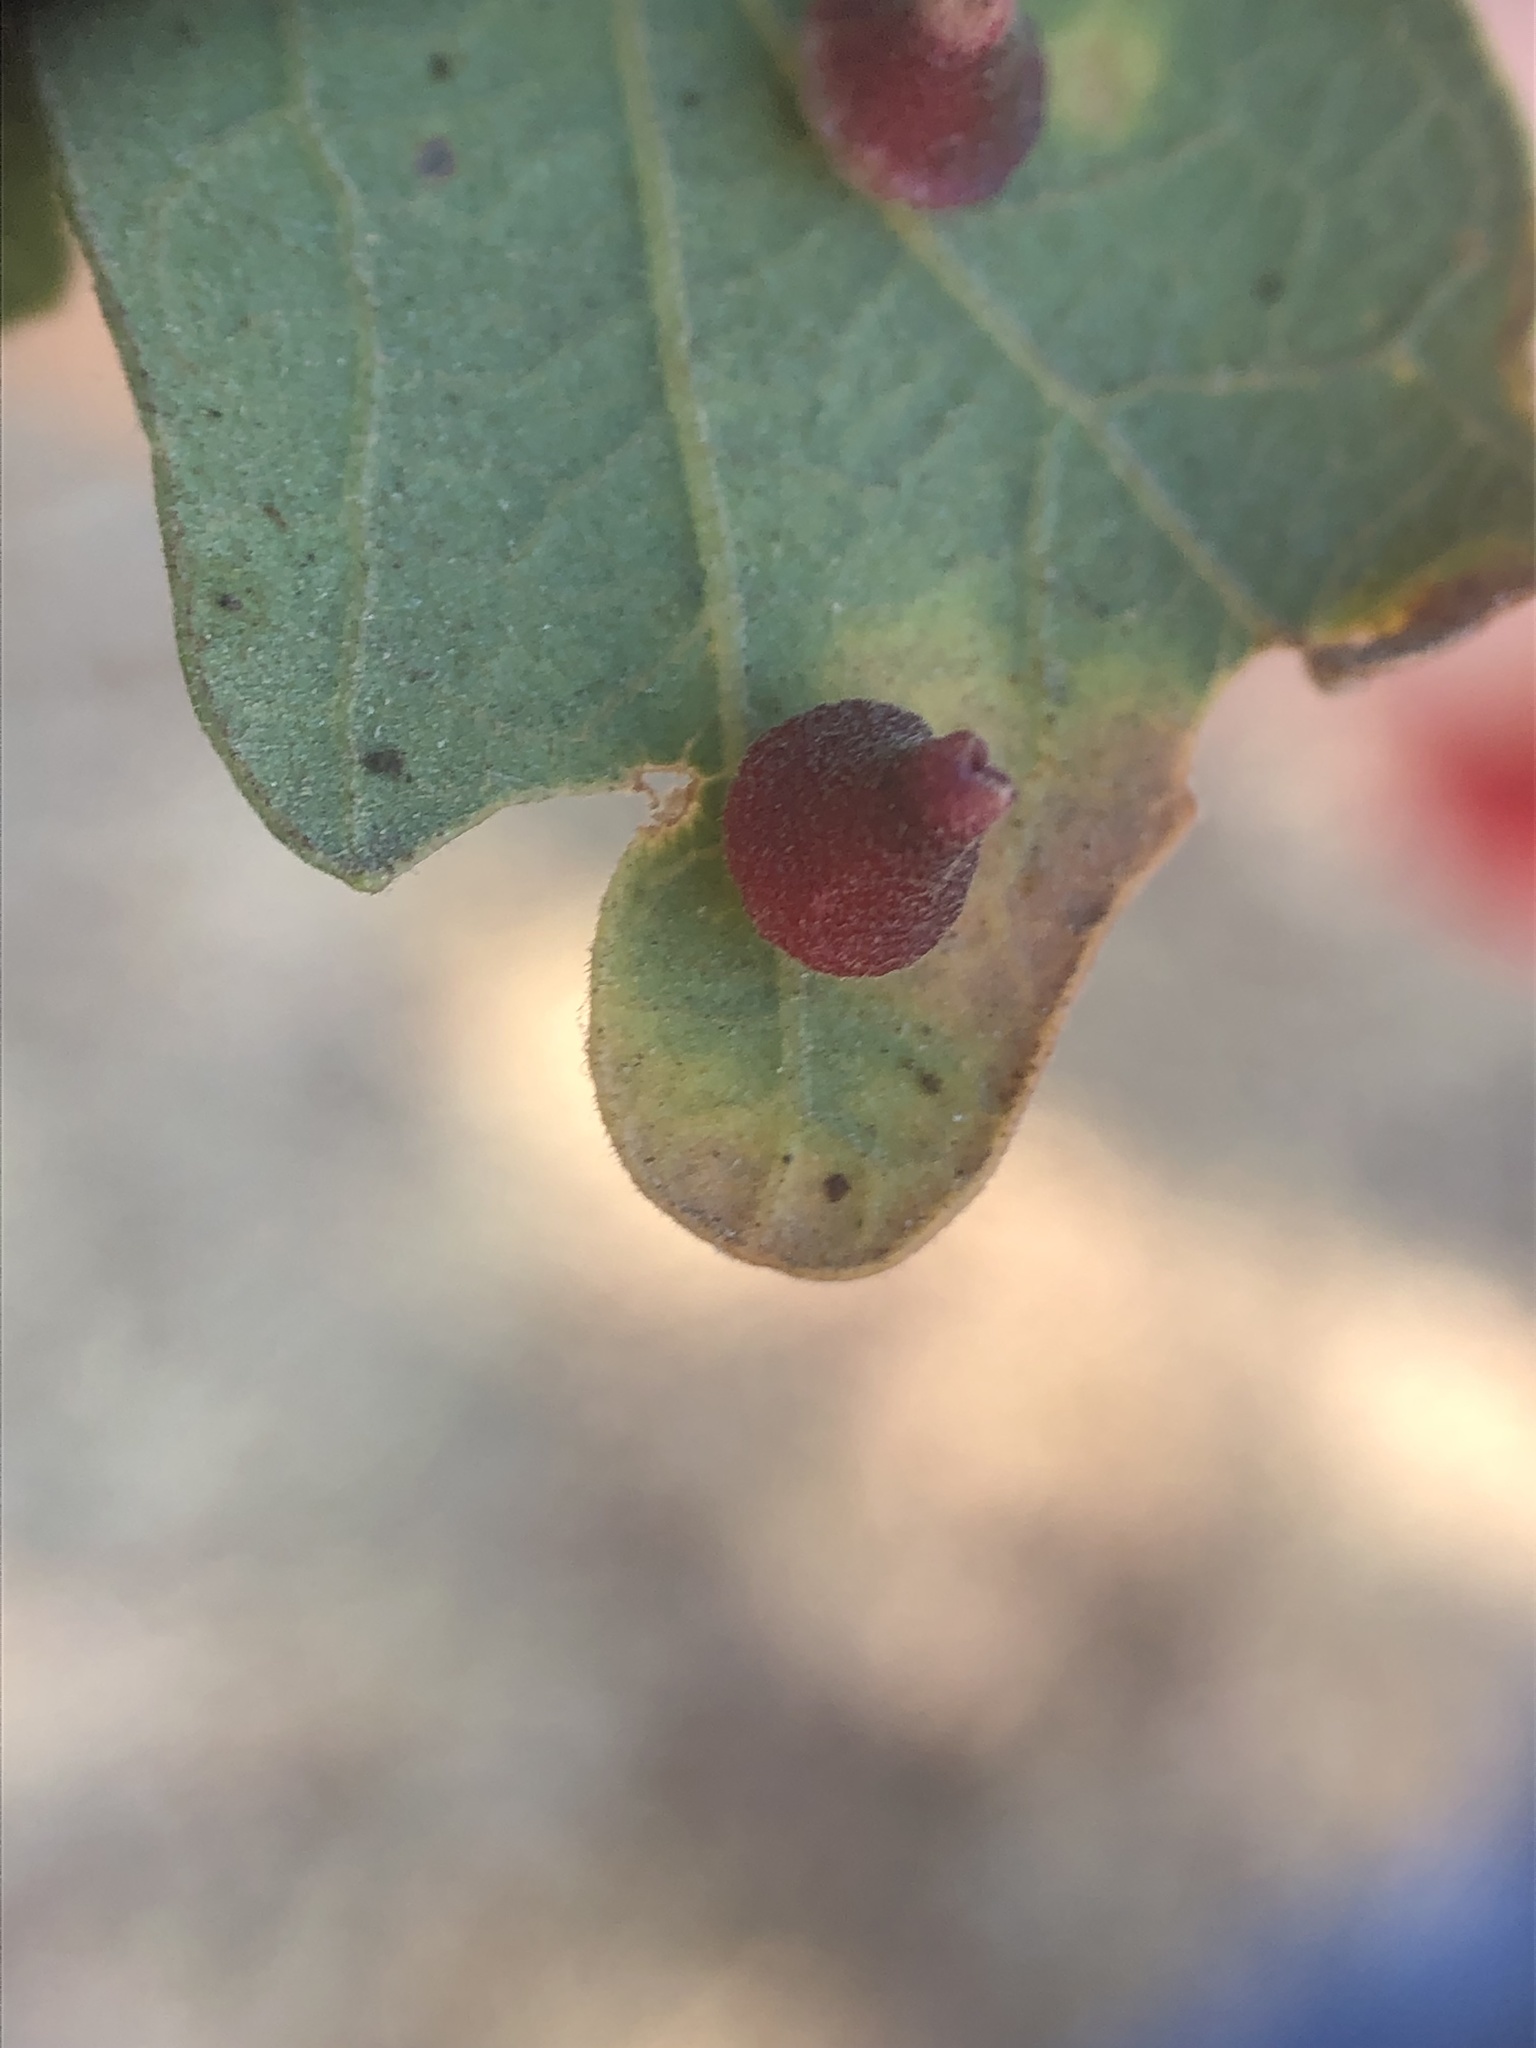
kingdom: Animalia
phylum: Arthropoda
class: Insecta
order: Hymenoptera
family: Cynipidae
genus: Andricus
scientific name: Andricus
